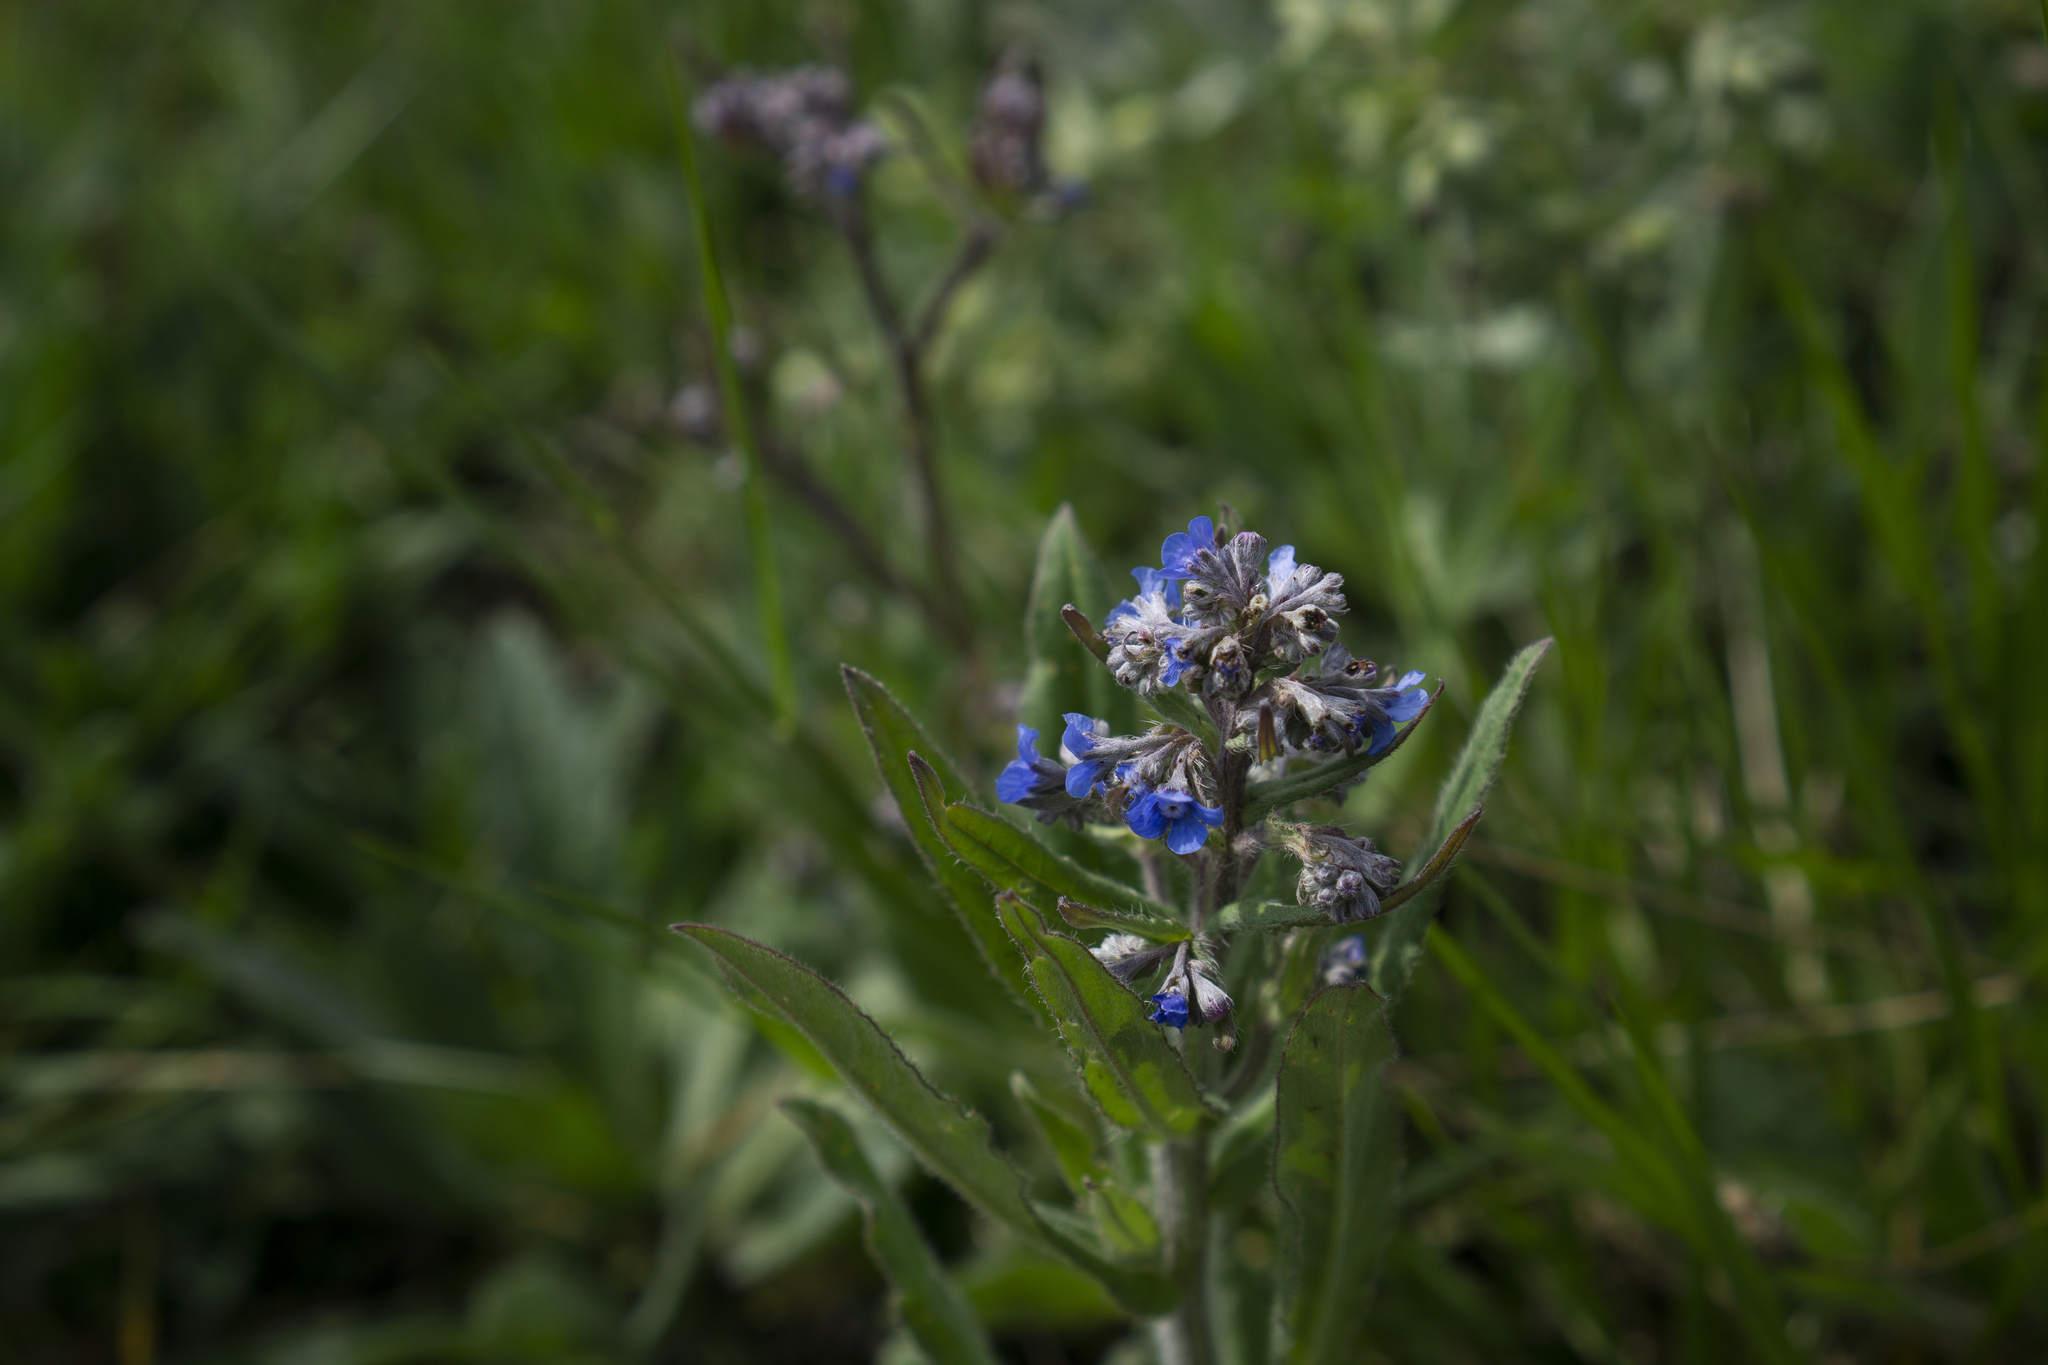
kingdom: Plantae
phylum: Tracheophyta
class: Magnoliopsida
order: Boraginales
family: Boraginaceae
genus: Cynoglottis
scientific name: Cynoglottis barrelieri
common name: False alkanet
